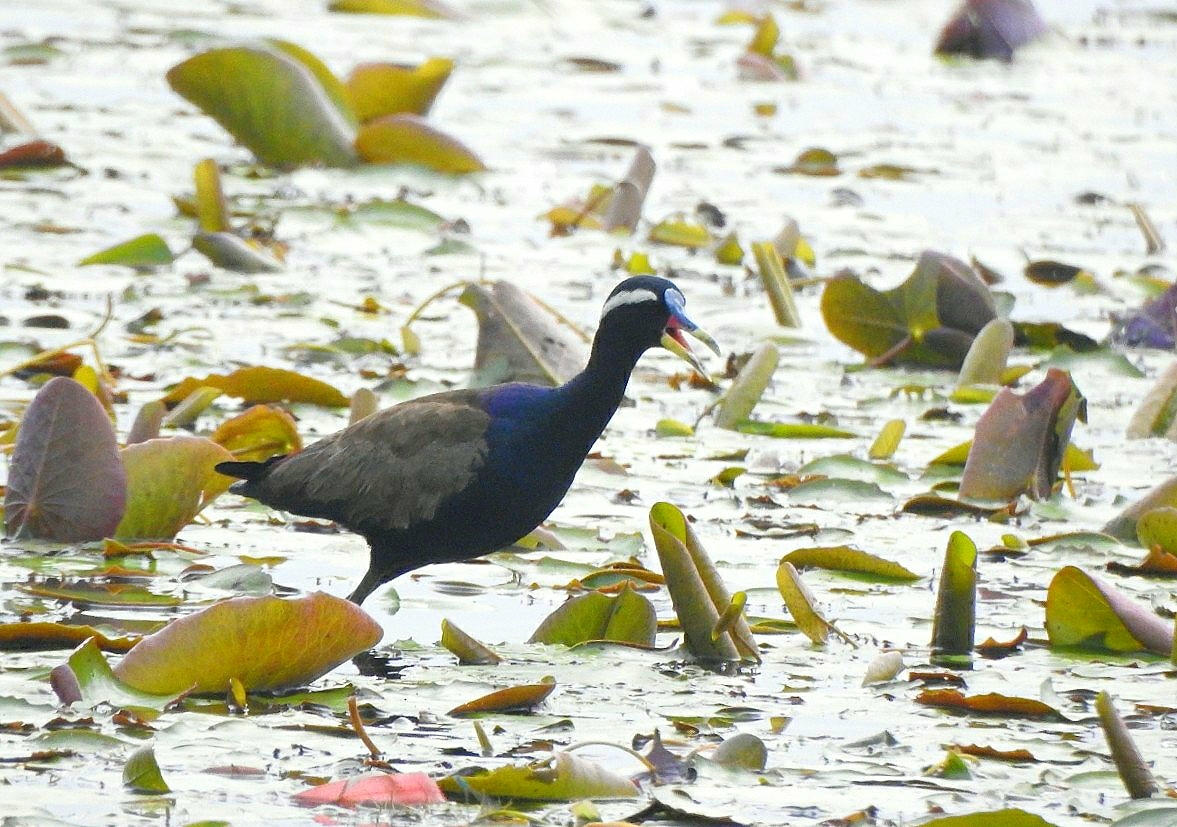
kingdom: Animalia
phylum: Chordata
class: Aves
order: Charadriiformes
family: Jacanidae
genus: Metopidius
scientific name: Metopidius indicus
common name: Bronze-winged jacana
